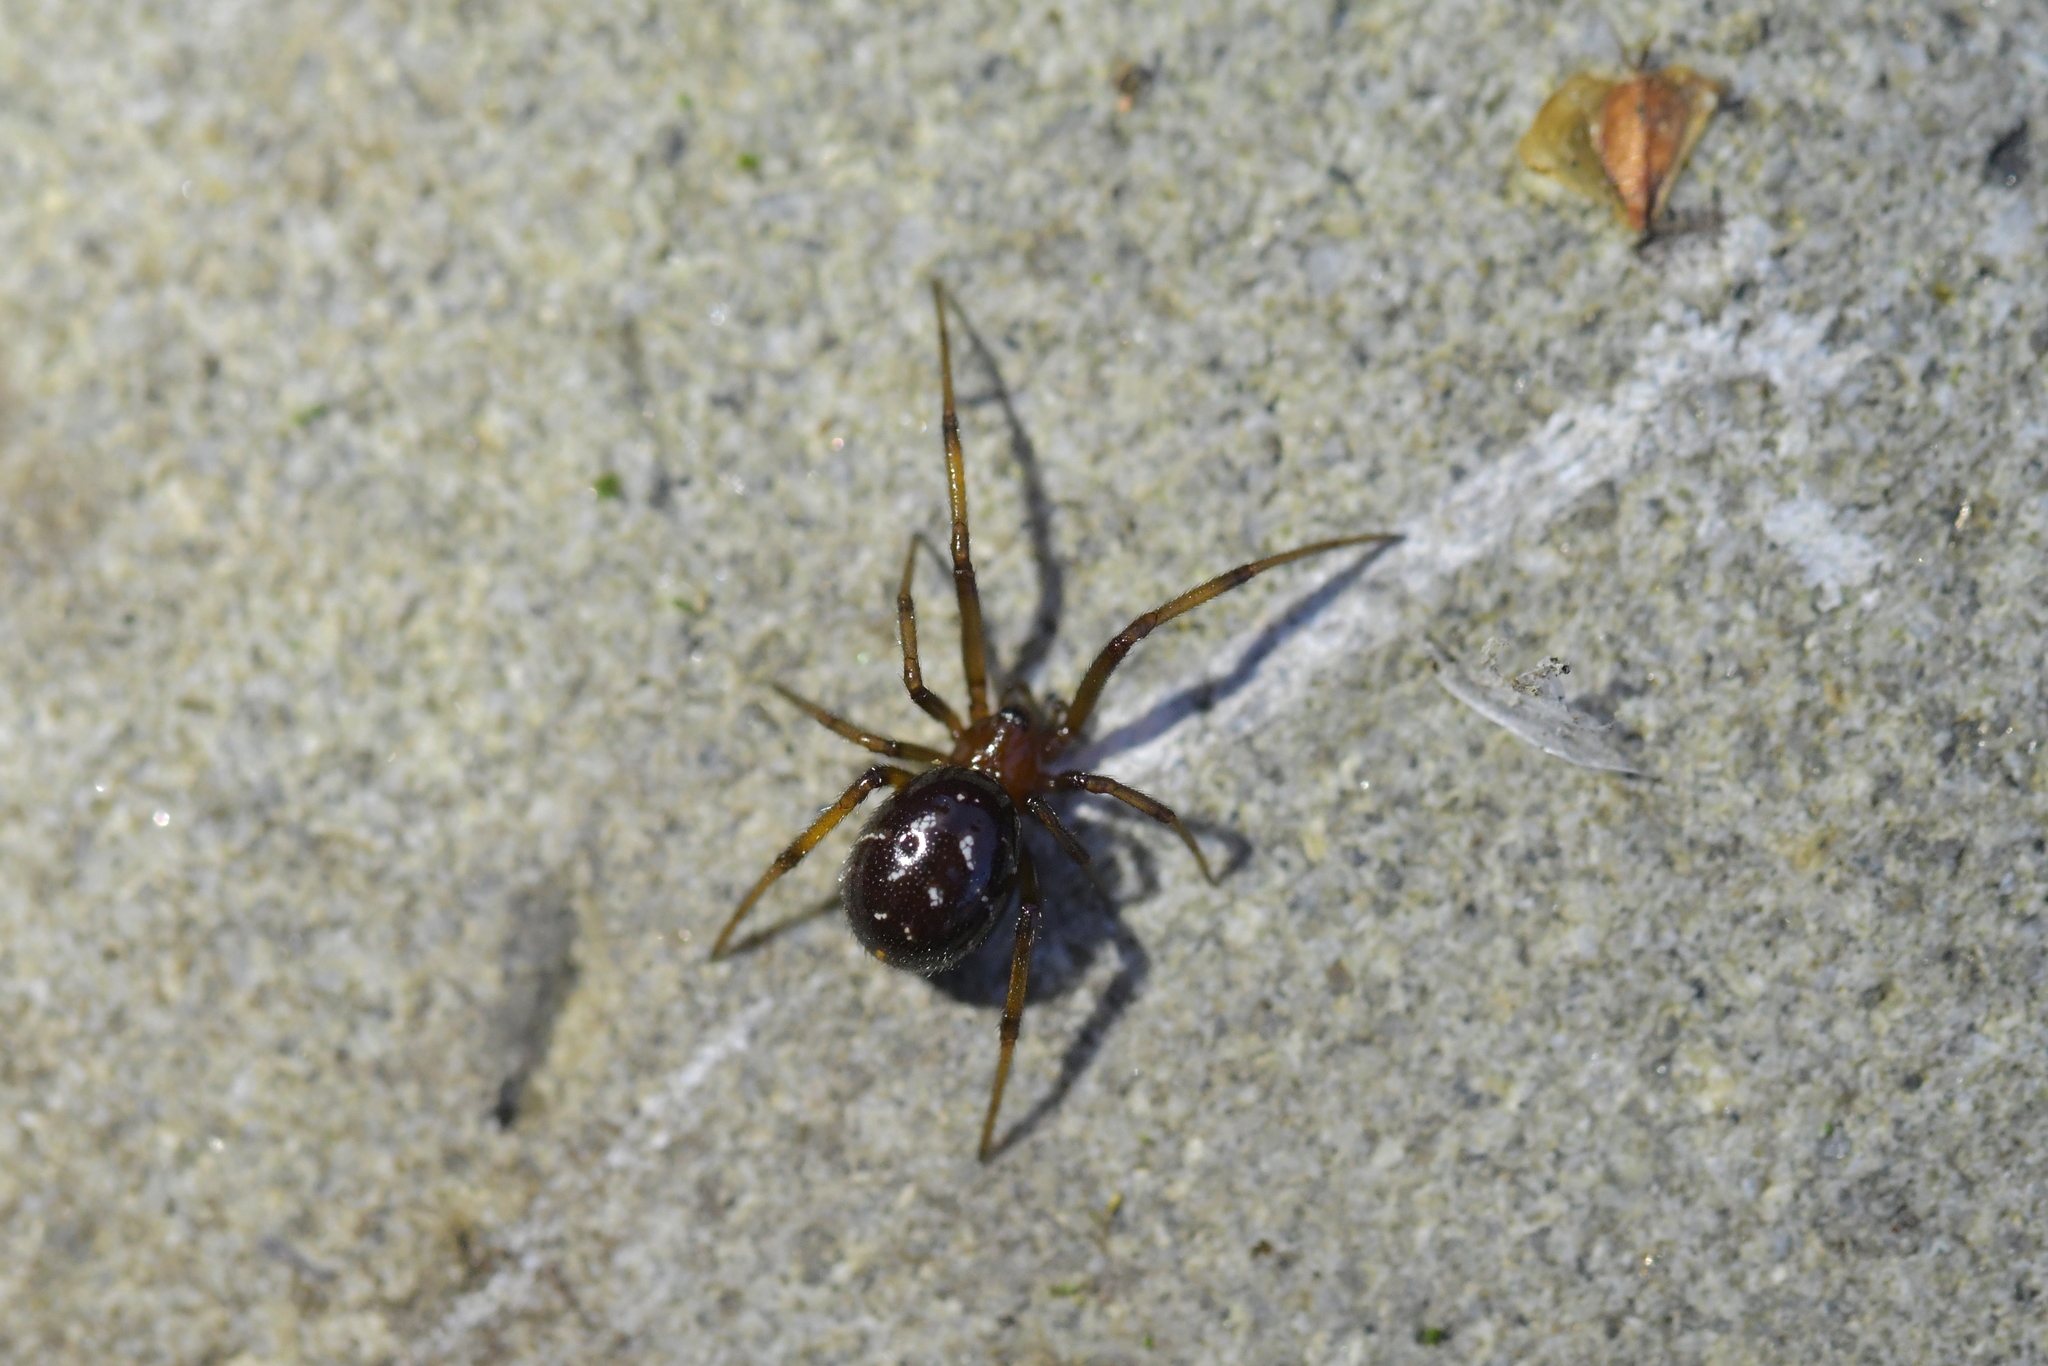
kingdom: Animalia
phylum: Arthropoda
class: Arachnida
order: Araneae
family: Theridiidae
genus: Steatoda
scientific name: Steatoda capensis
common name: Cobweb weaver
